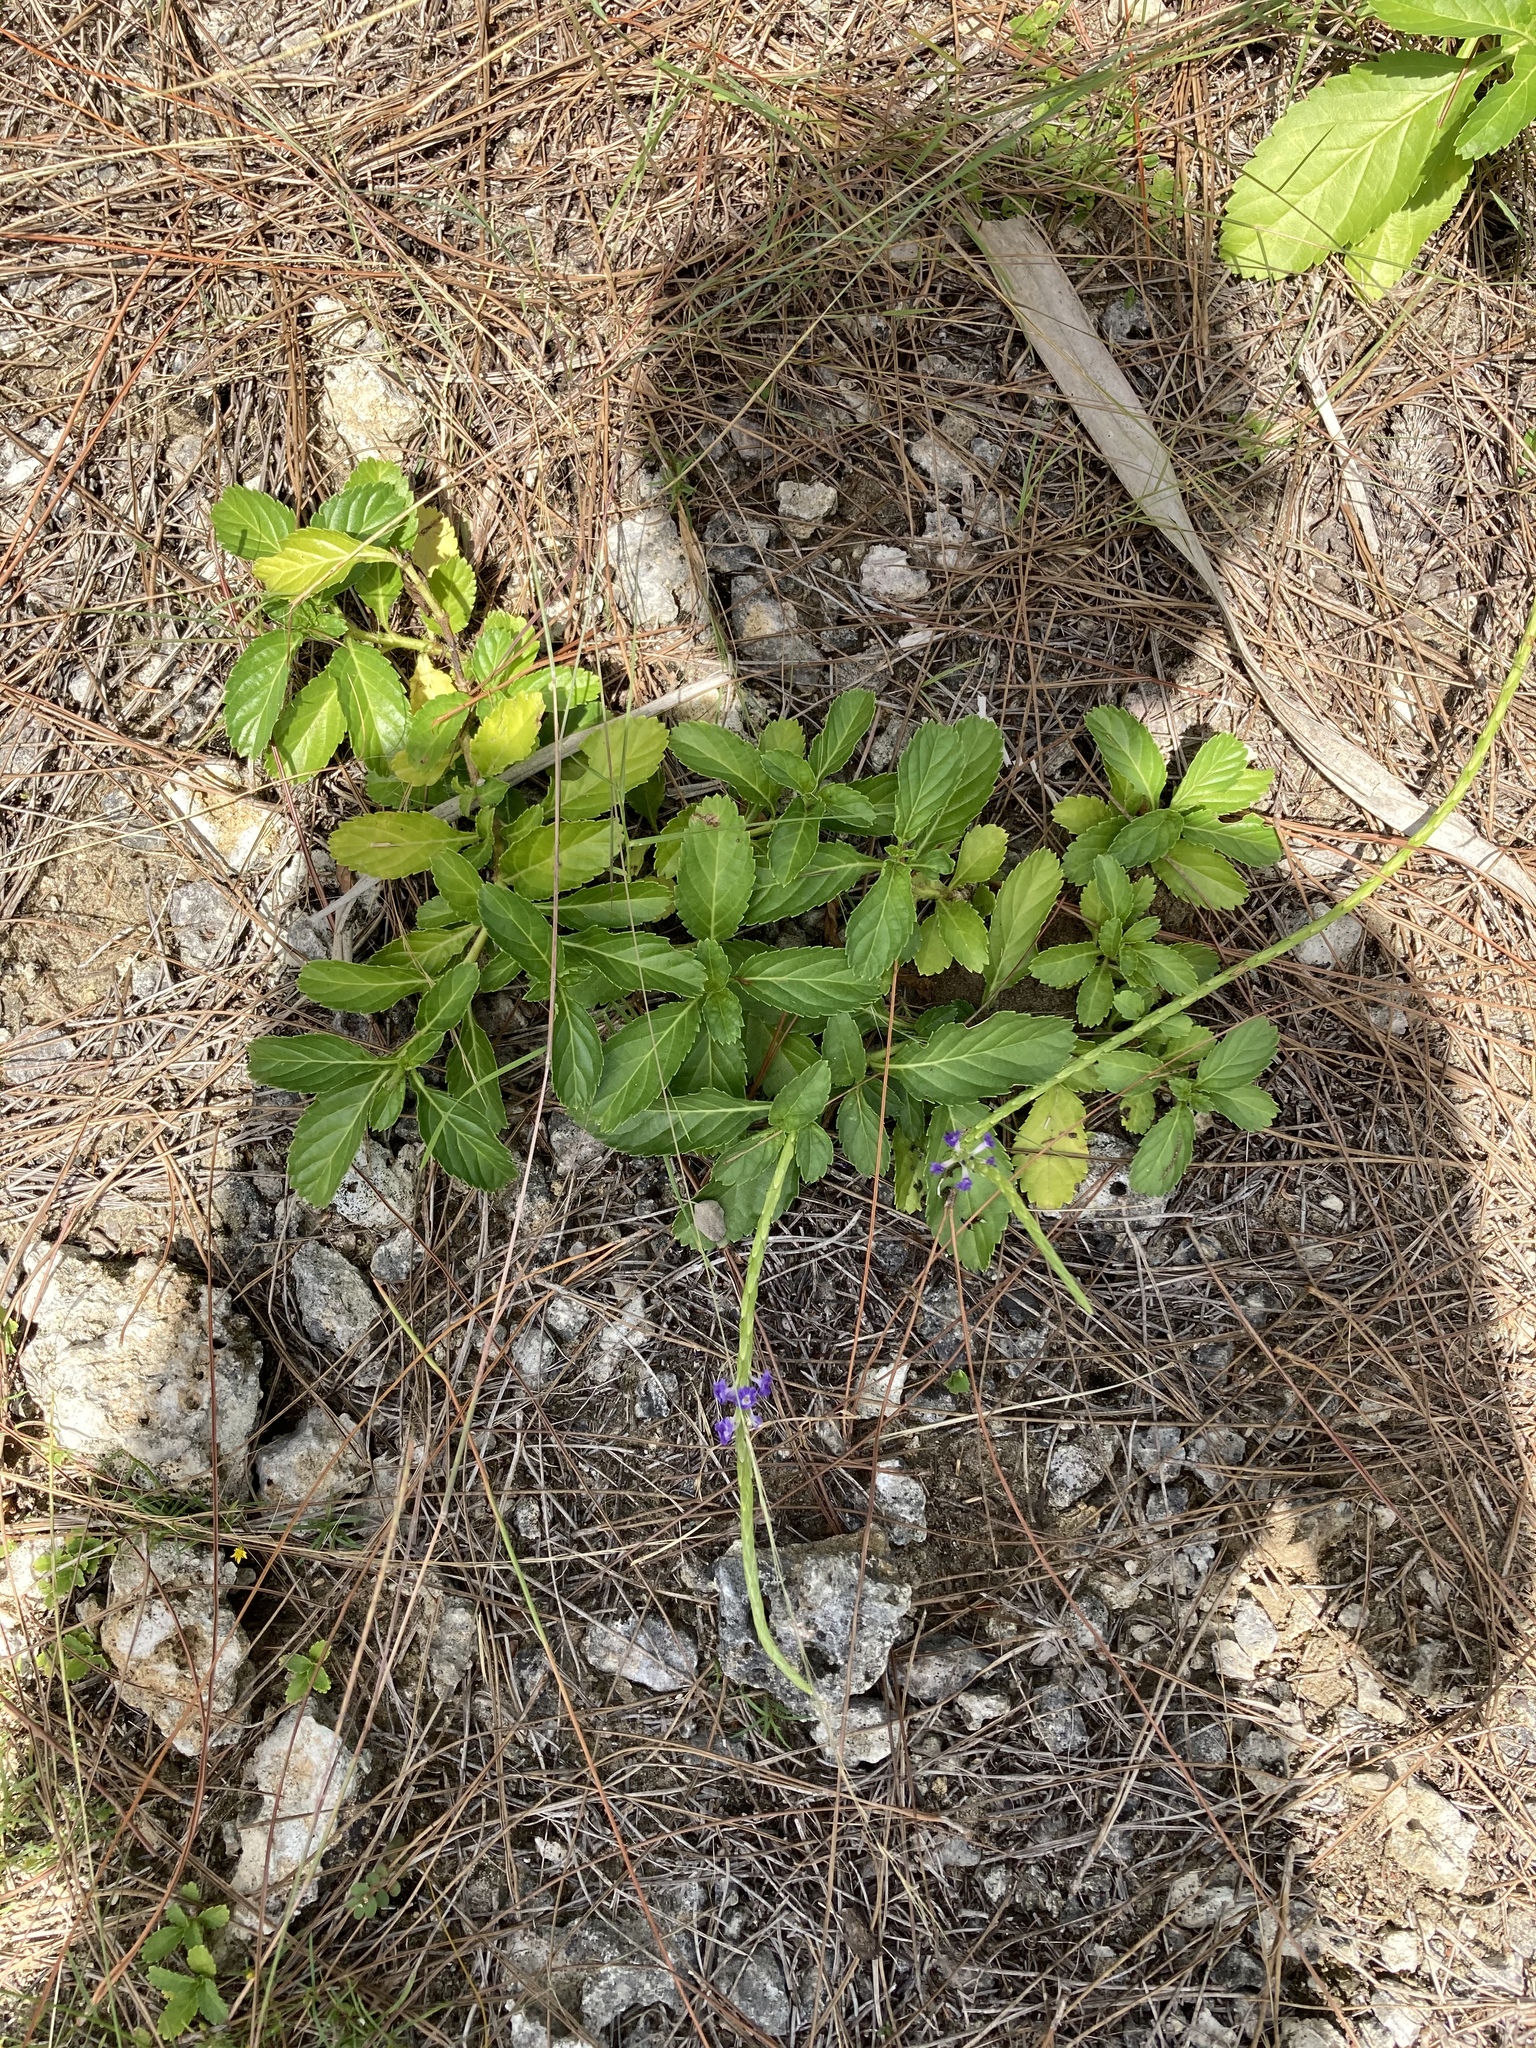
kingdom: Plantae
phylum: Tracheophyta
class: Magnoliopsida
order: Lamiales
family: Verbenaceae
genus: Stachytarpheta
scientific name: Stachytarpheta jamaicensis
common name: Light-blue snakeweed
